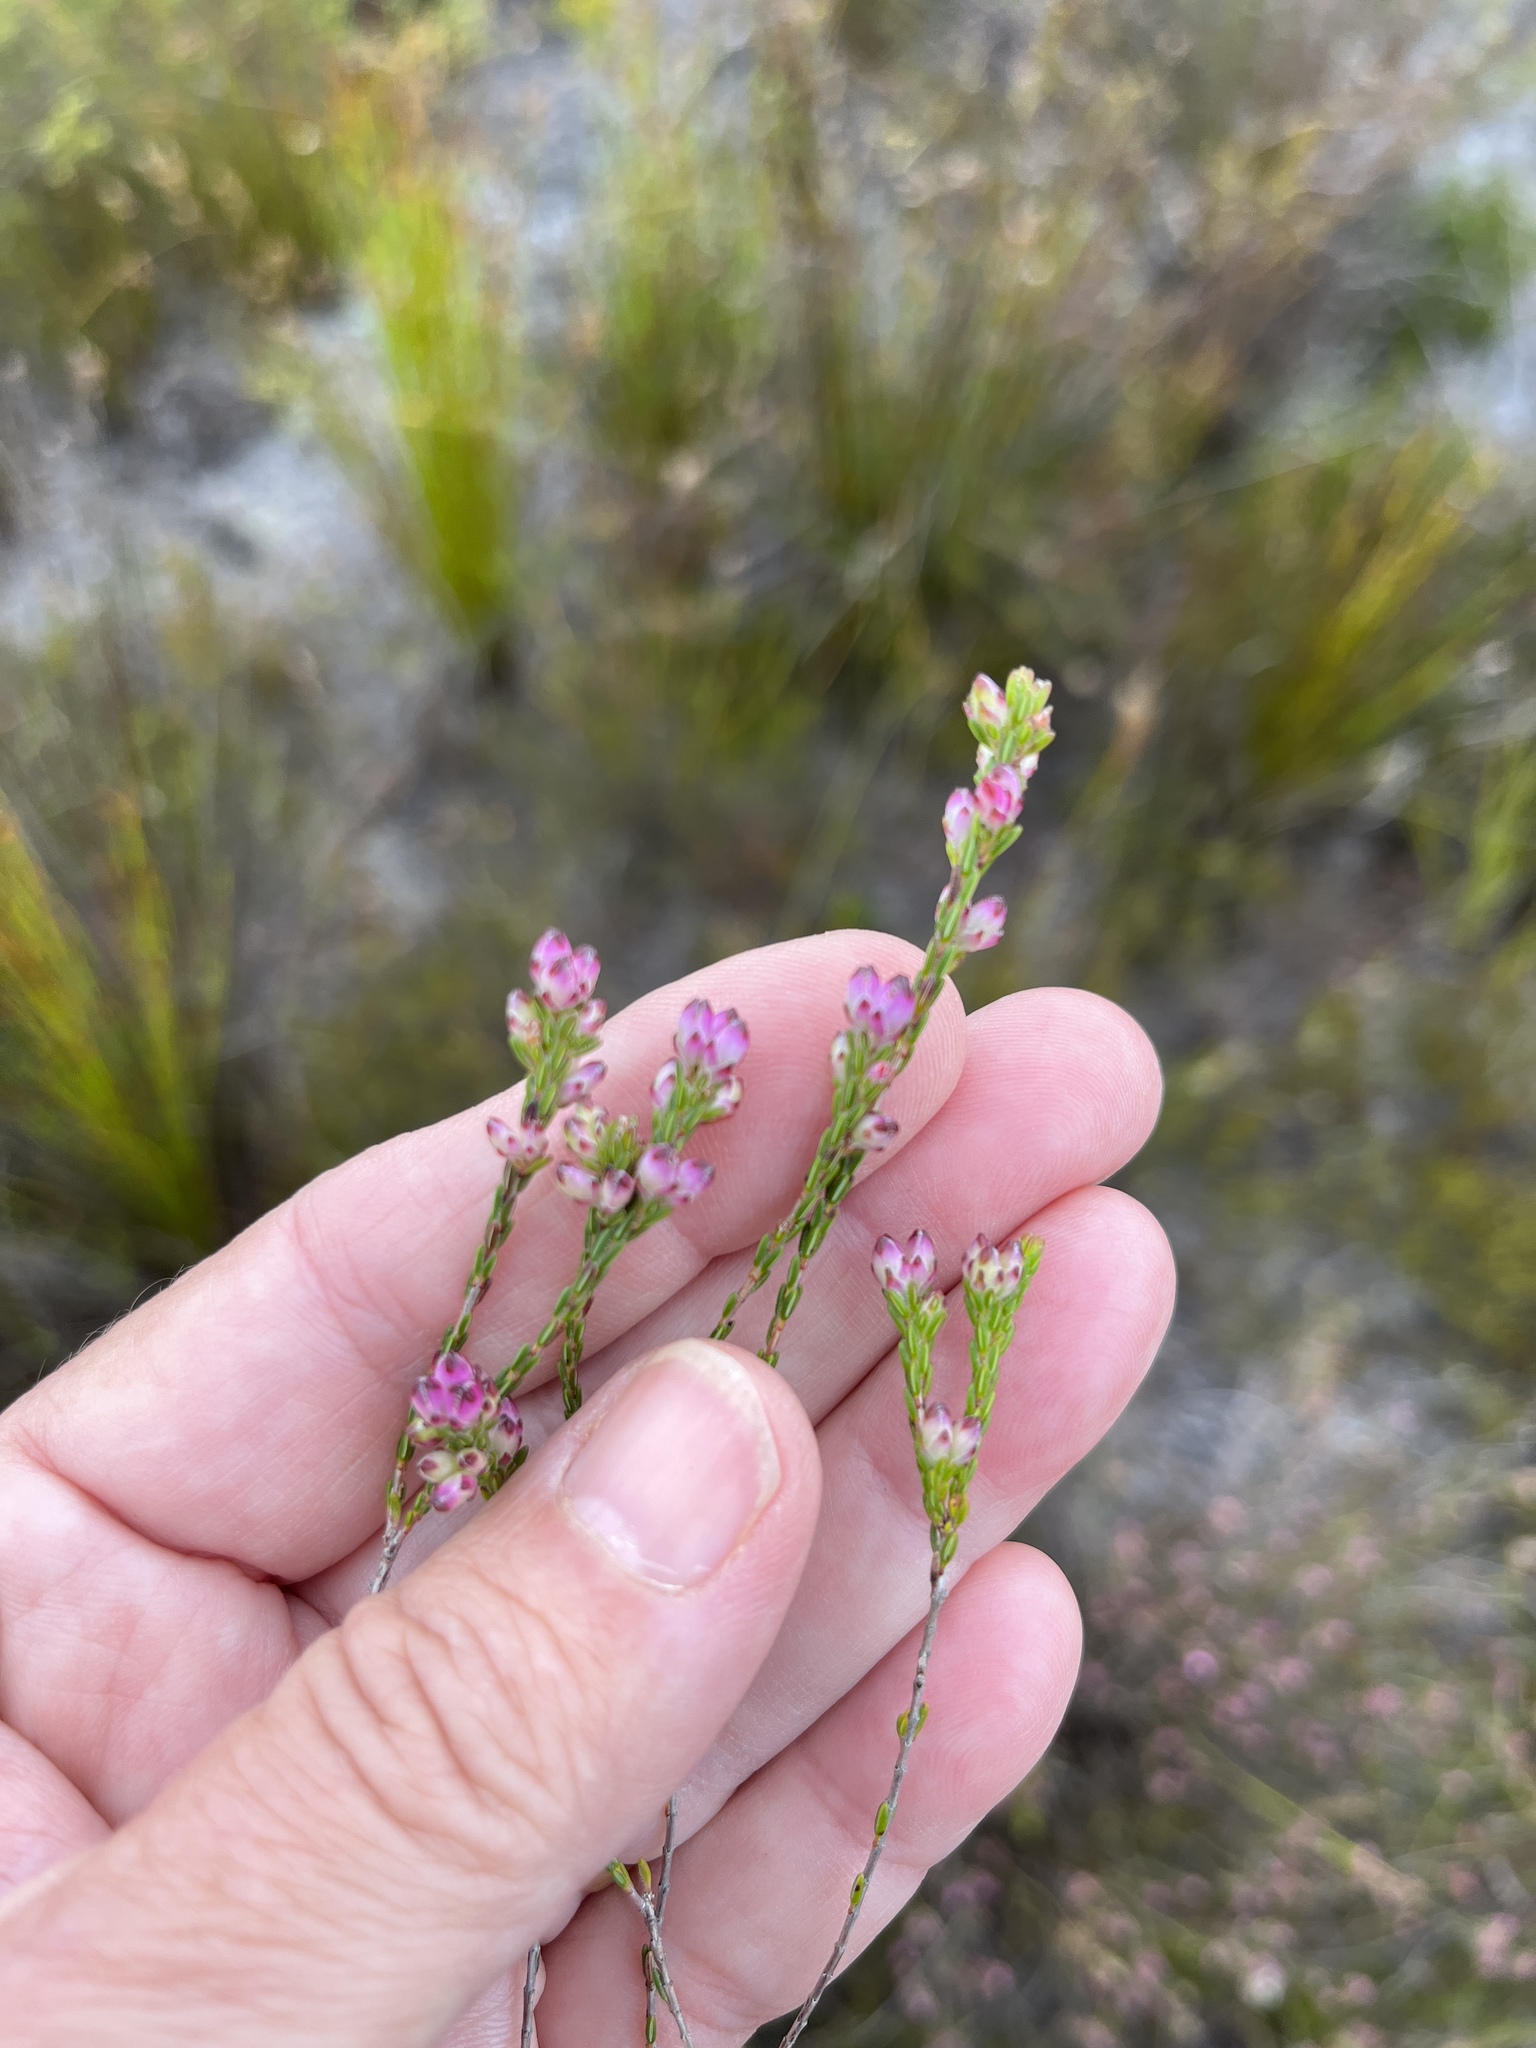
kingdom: Plantae
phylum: Tracheophyta
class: Magnoliopsida
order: Ericales
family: Ericaceae
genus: Erica
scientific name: Erica melanacme
